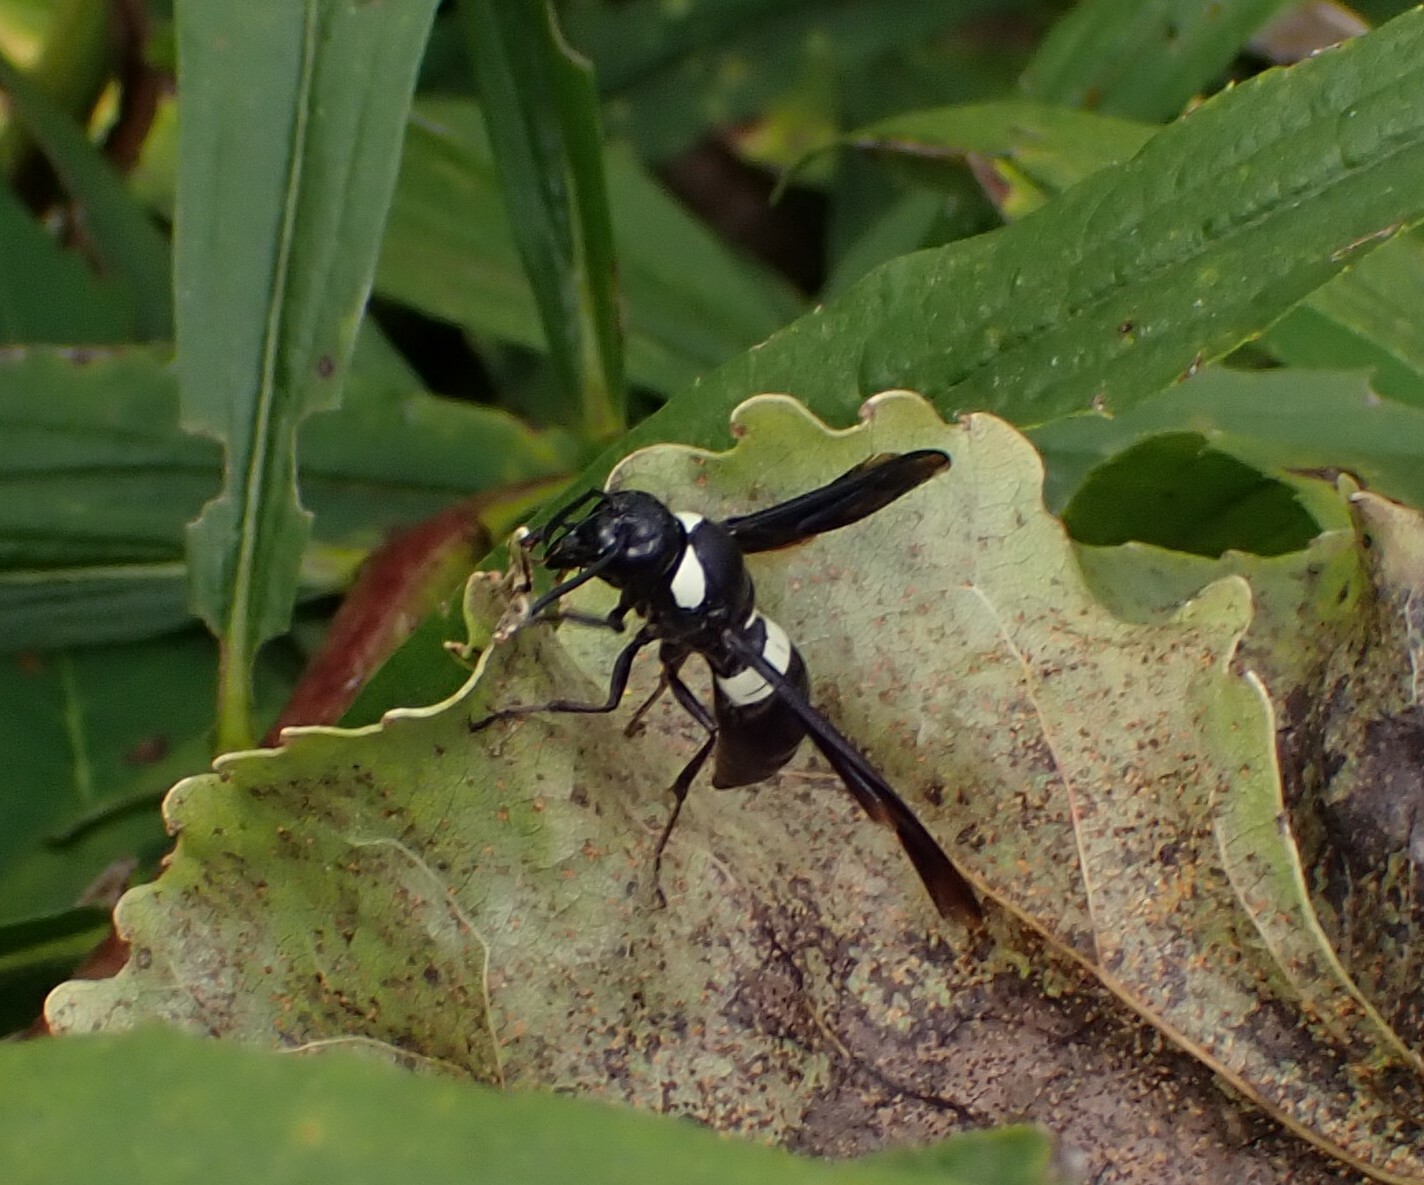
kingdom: Animalia
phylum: Arthropoda
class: Insecta
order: Hymenoptera
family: Eumenidae
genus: Monobia
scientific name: Monobia quadridens
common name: Four-toothed mason wasp
